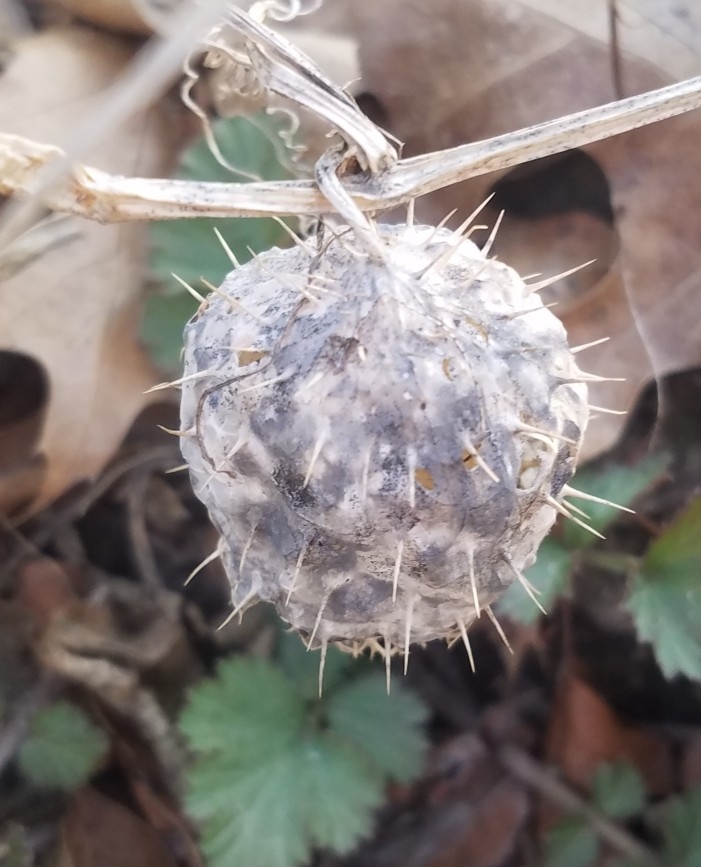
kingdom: Plantae
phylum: Tracheophyta
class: Magnoliopsida
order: Cucurbitales
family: Cucurbitaceae
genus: Echinocystis
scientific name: Echinocystis lobata
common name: Wild cucumber
